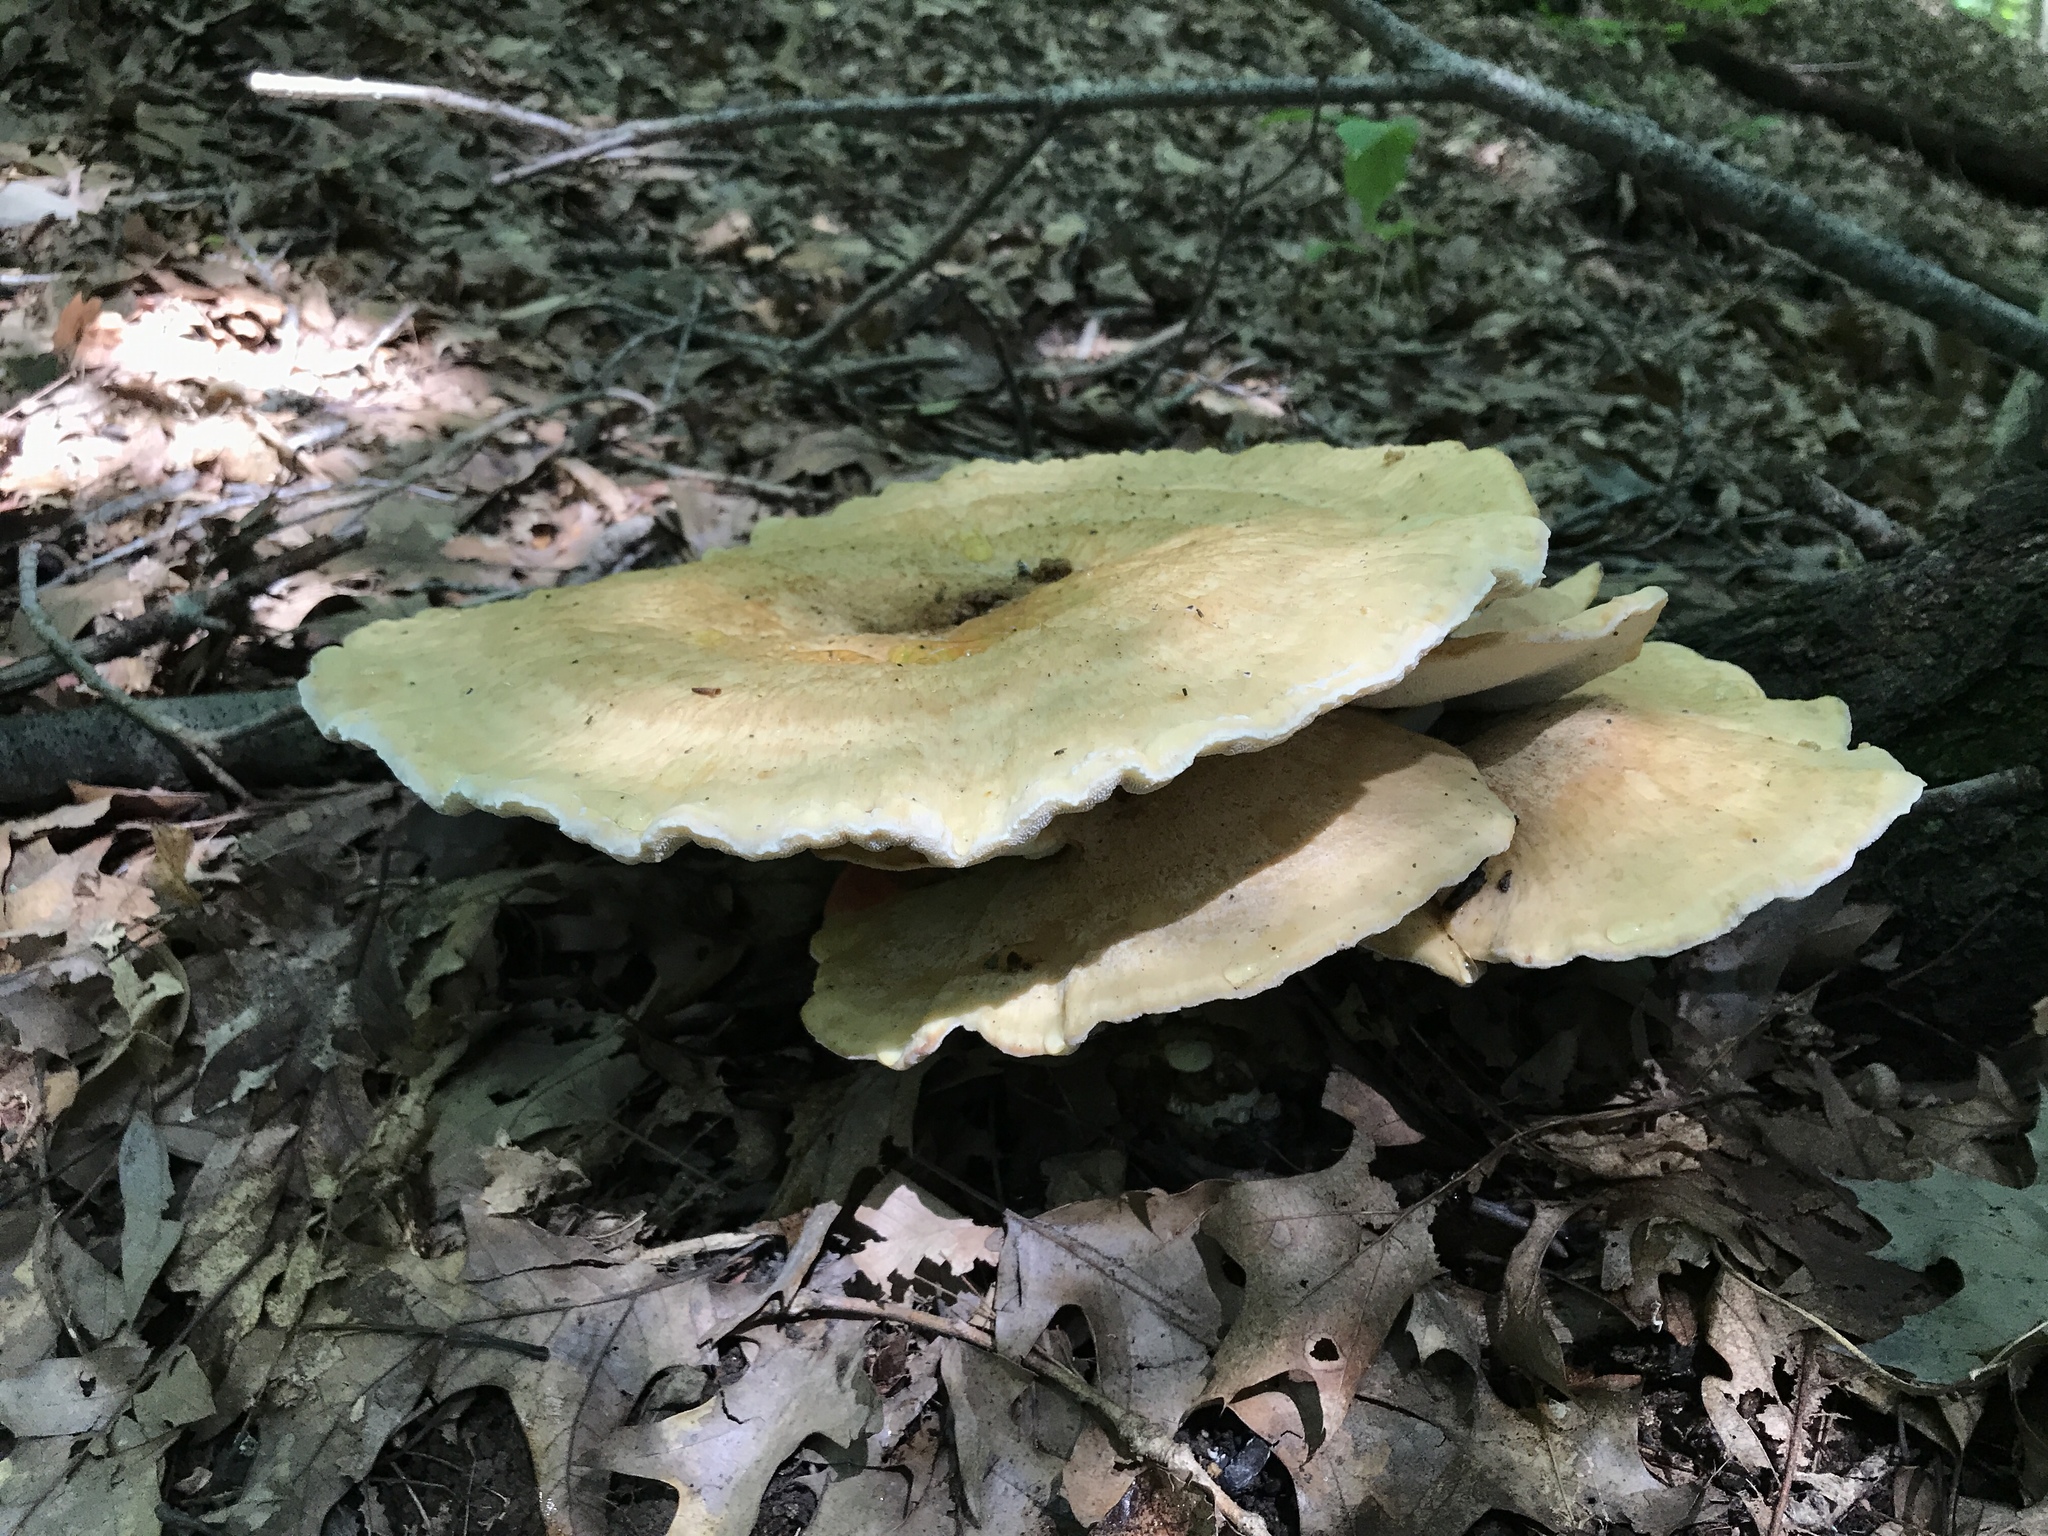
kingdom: Fungi
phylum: Basidiomycota
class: Agaricomycetes
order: Russulales
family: Bondarzewiaceae
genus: Bondarzewia
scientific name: Bondarzewia berkeleyi
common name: Berkeley's polypore
